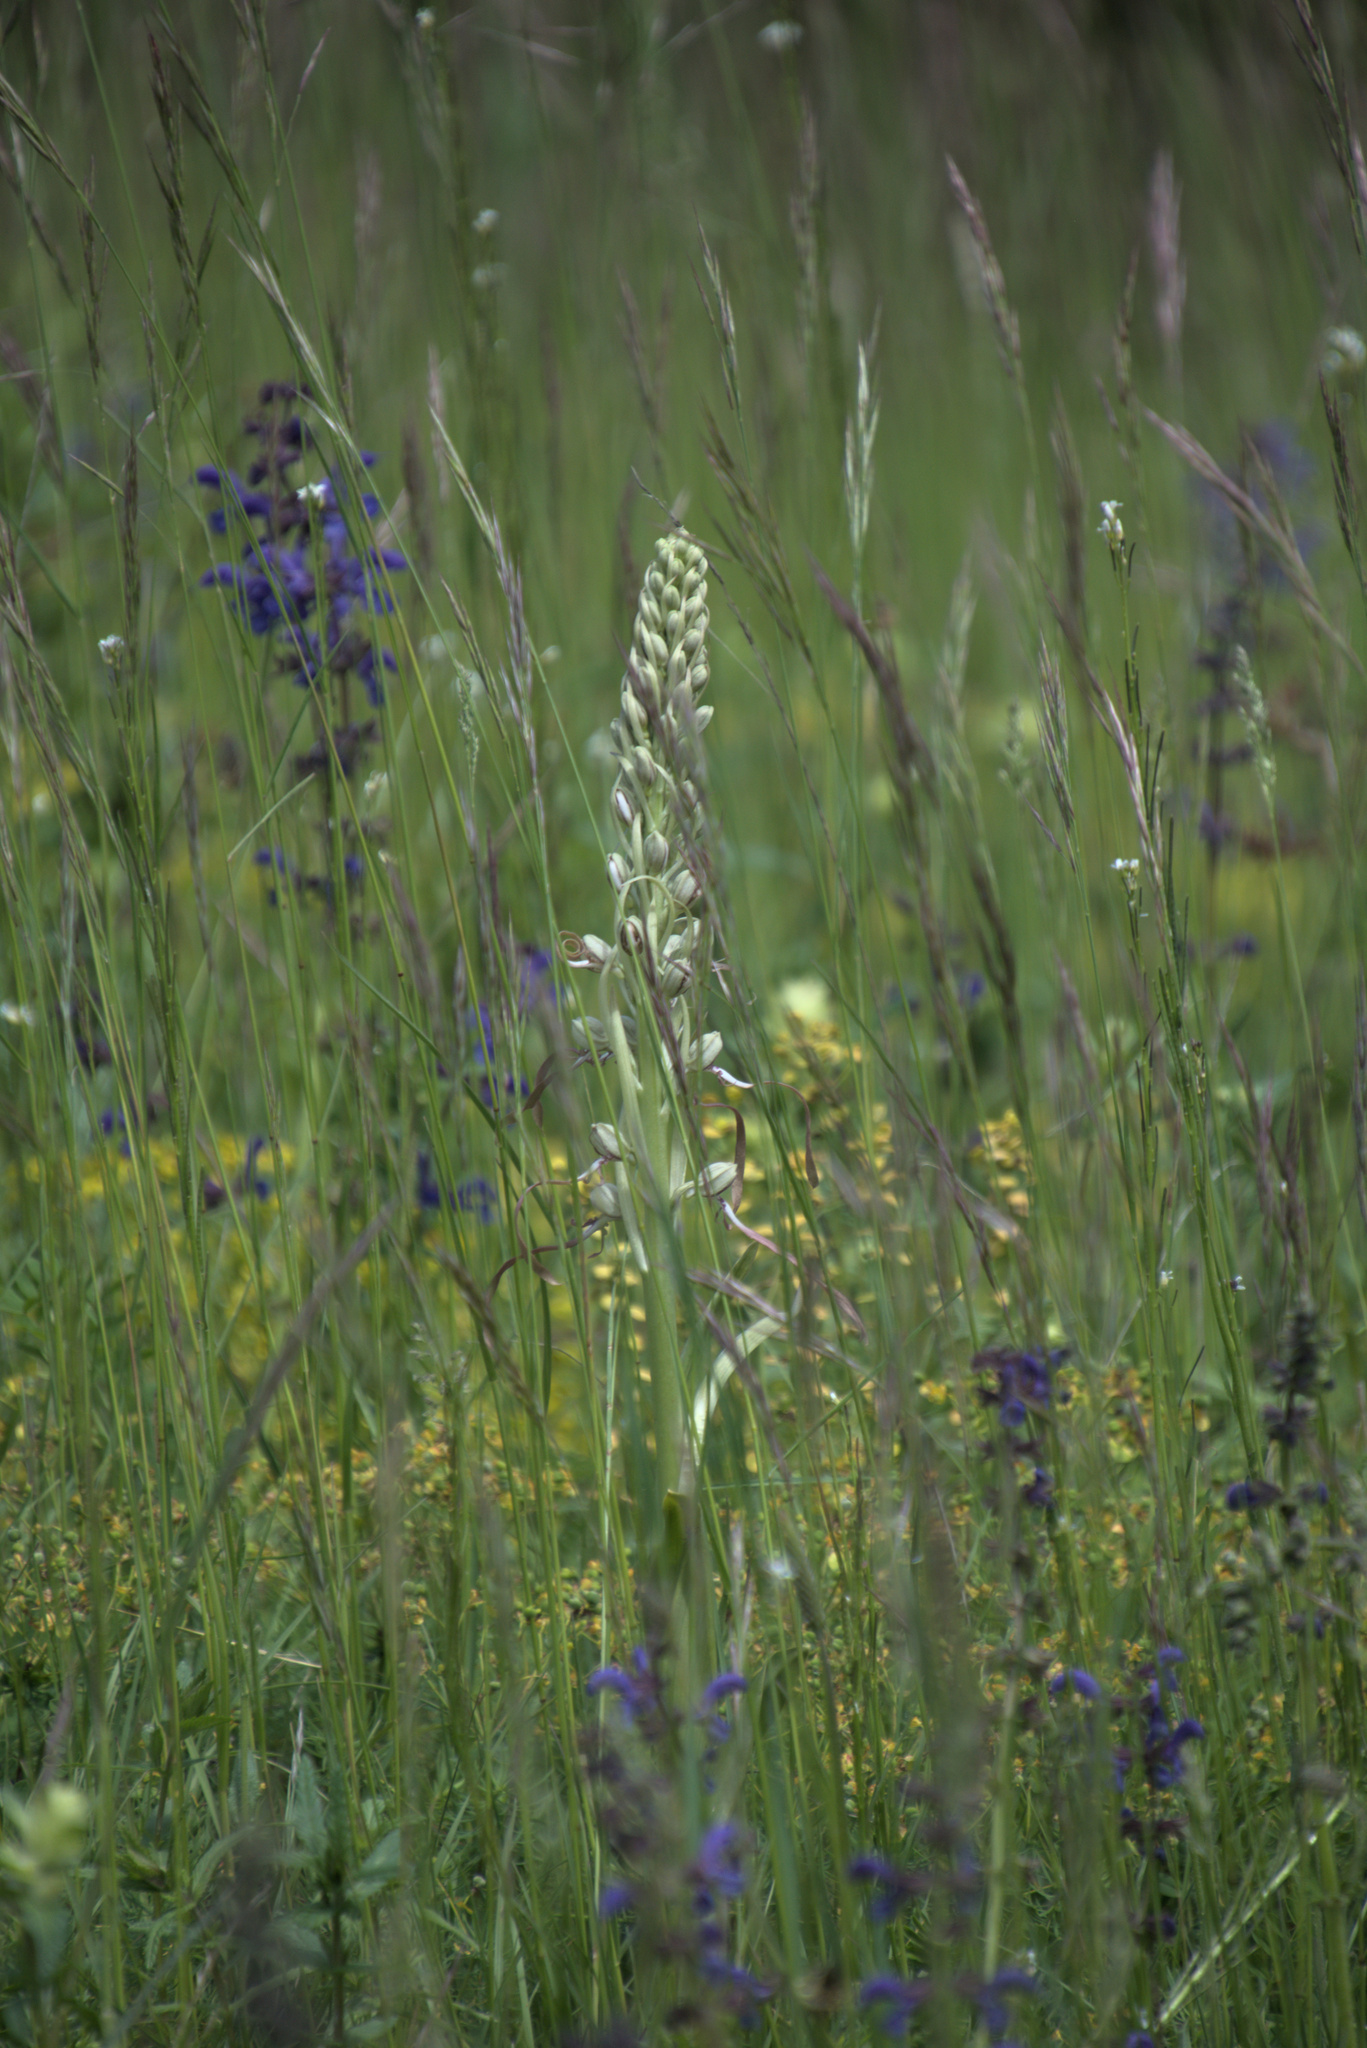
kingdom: Plantae
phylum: Tracheophyta
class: Liliopsida
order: Asparagales
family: Orchidaceae
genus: Himantoglossum
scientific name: Himantoglossum hircinum
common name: Lizard orchid
